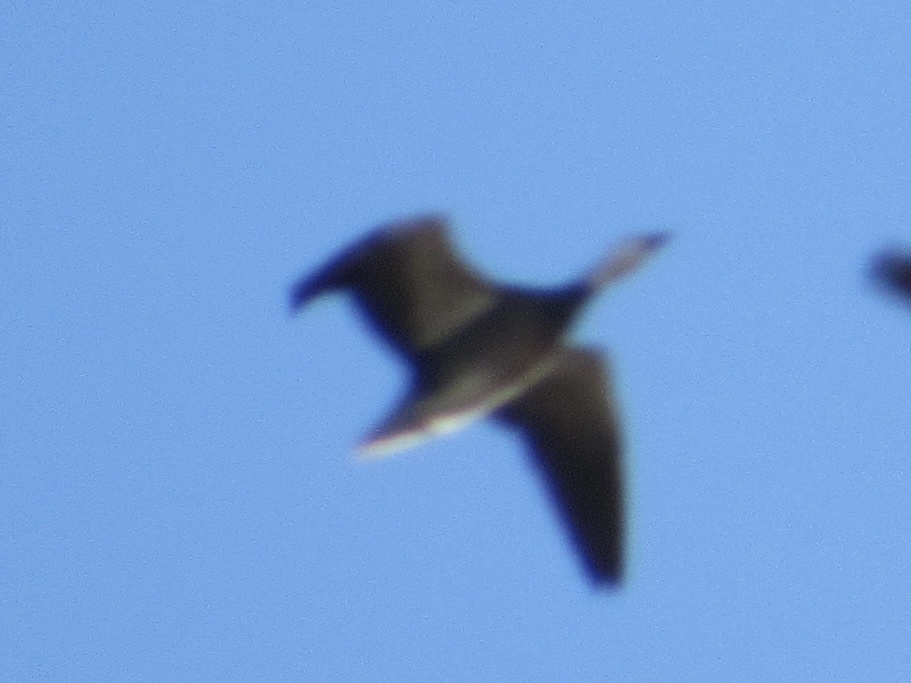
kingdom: Animalia
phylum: Chordata
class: Aves
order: Anseriformes
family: Anatidae
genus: Anser
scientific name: Anser caerulescens
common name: Snow goose
